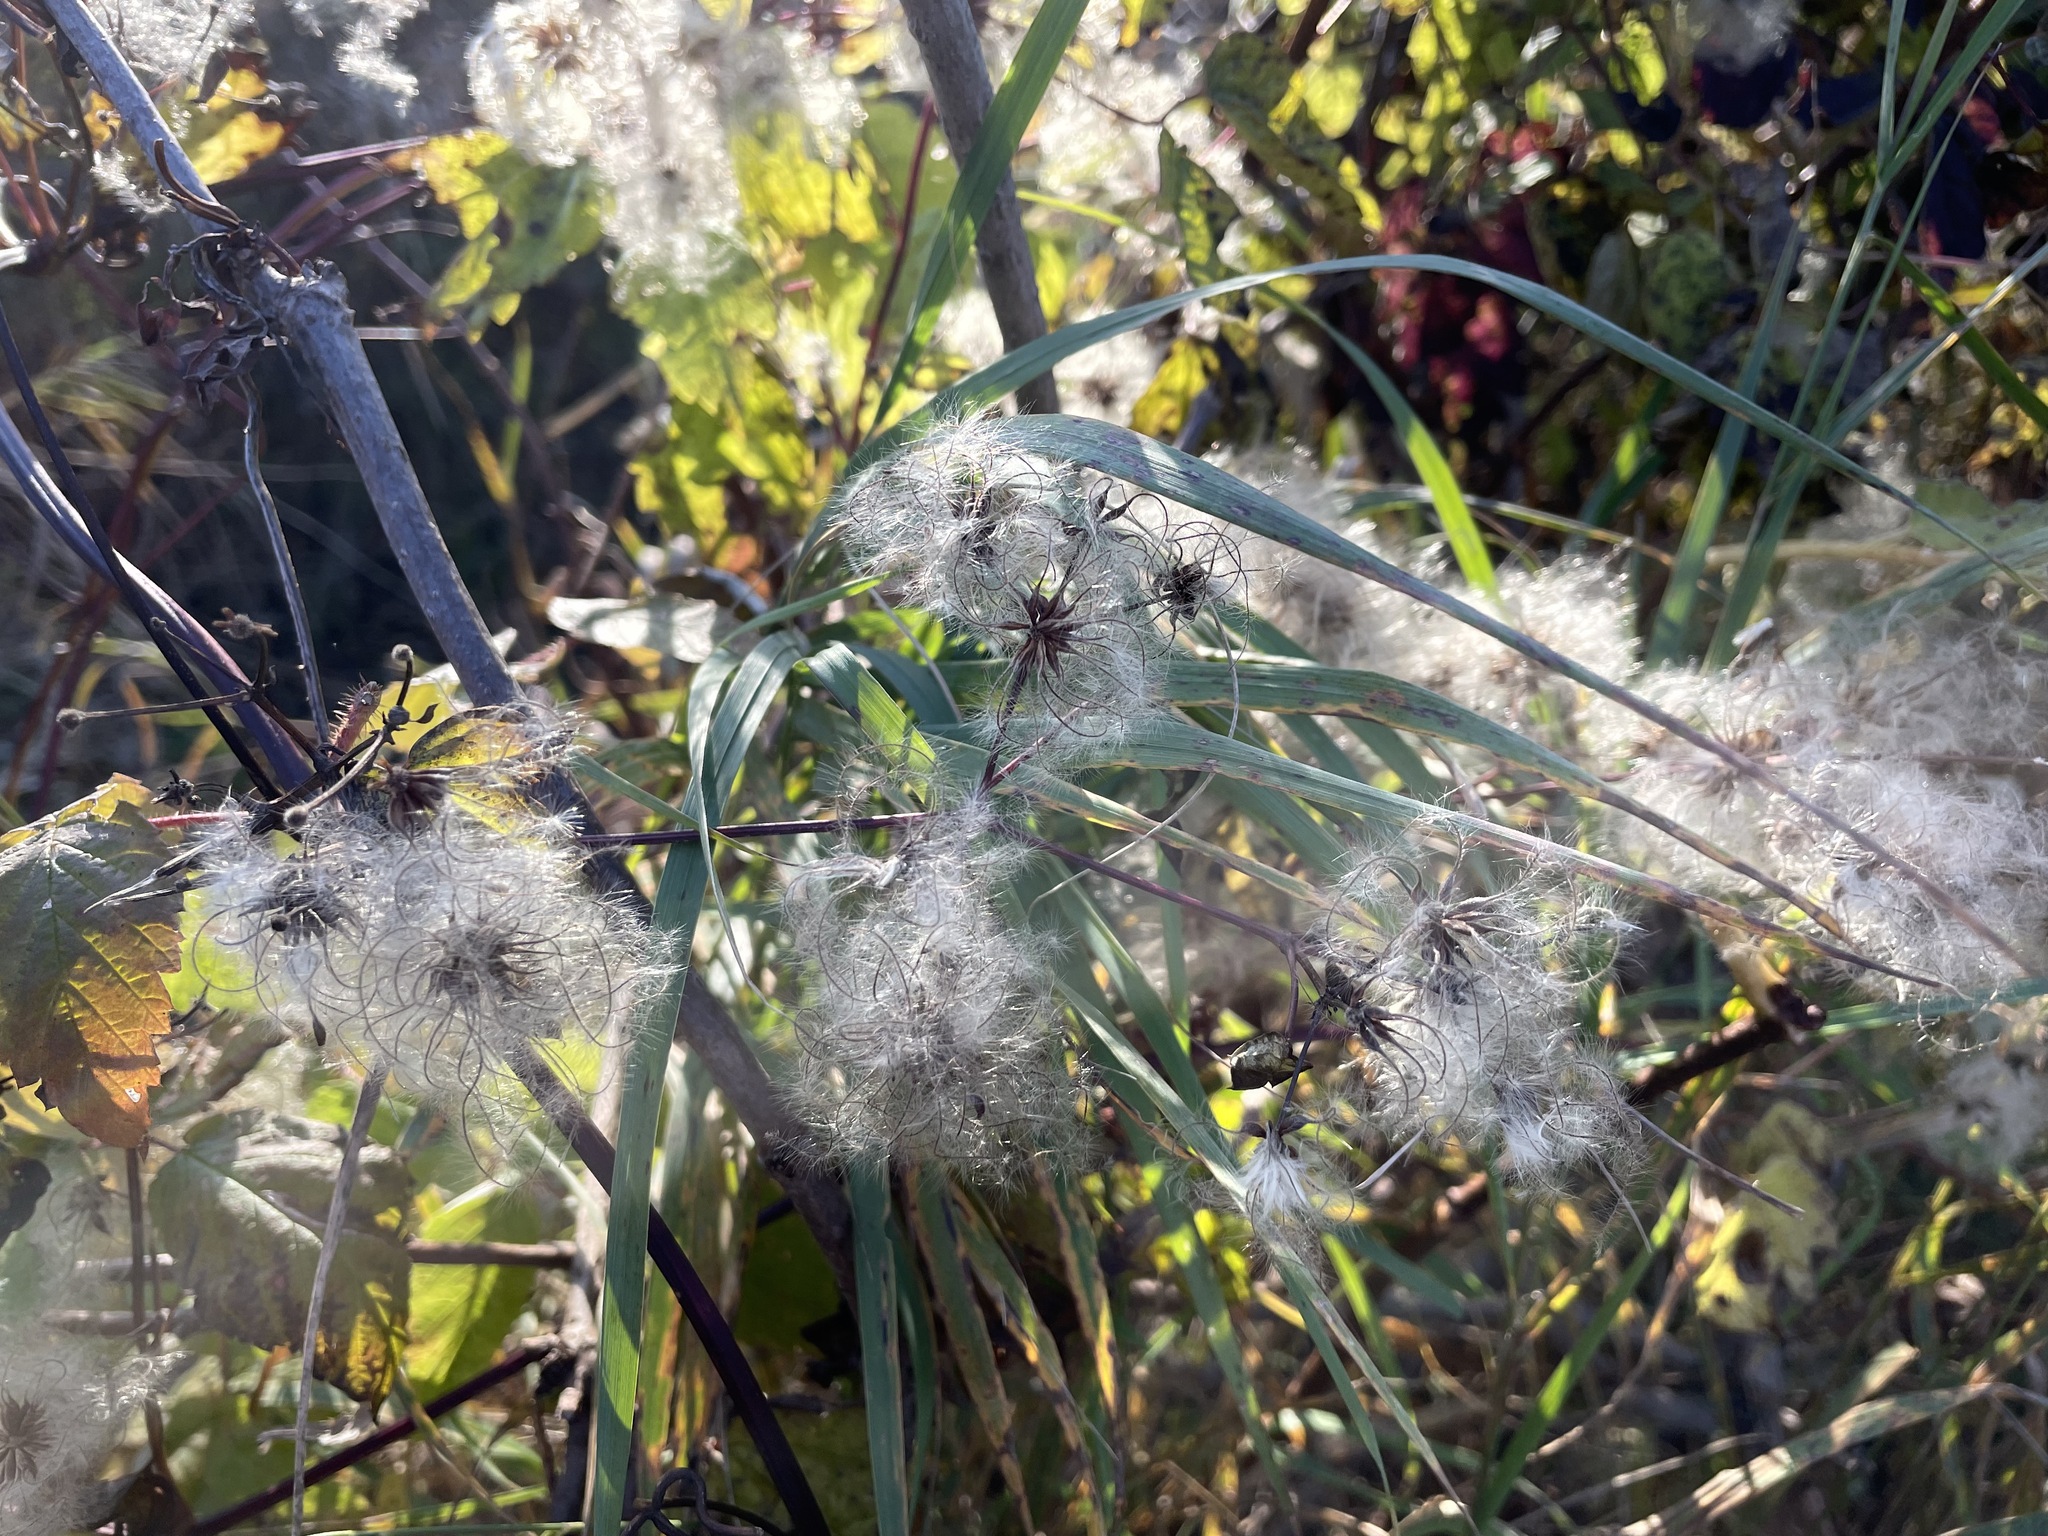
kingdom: Plantae
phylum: Tracheophyta
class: Magnoliopsida
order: Ranunculales
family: Ranunculaceae
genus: Clematis
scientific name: Clematis virginiana
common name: Virgin's-bower
